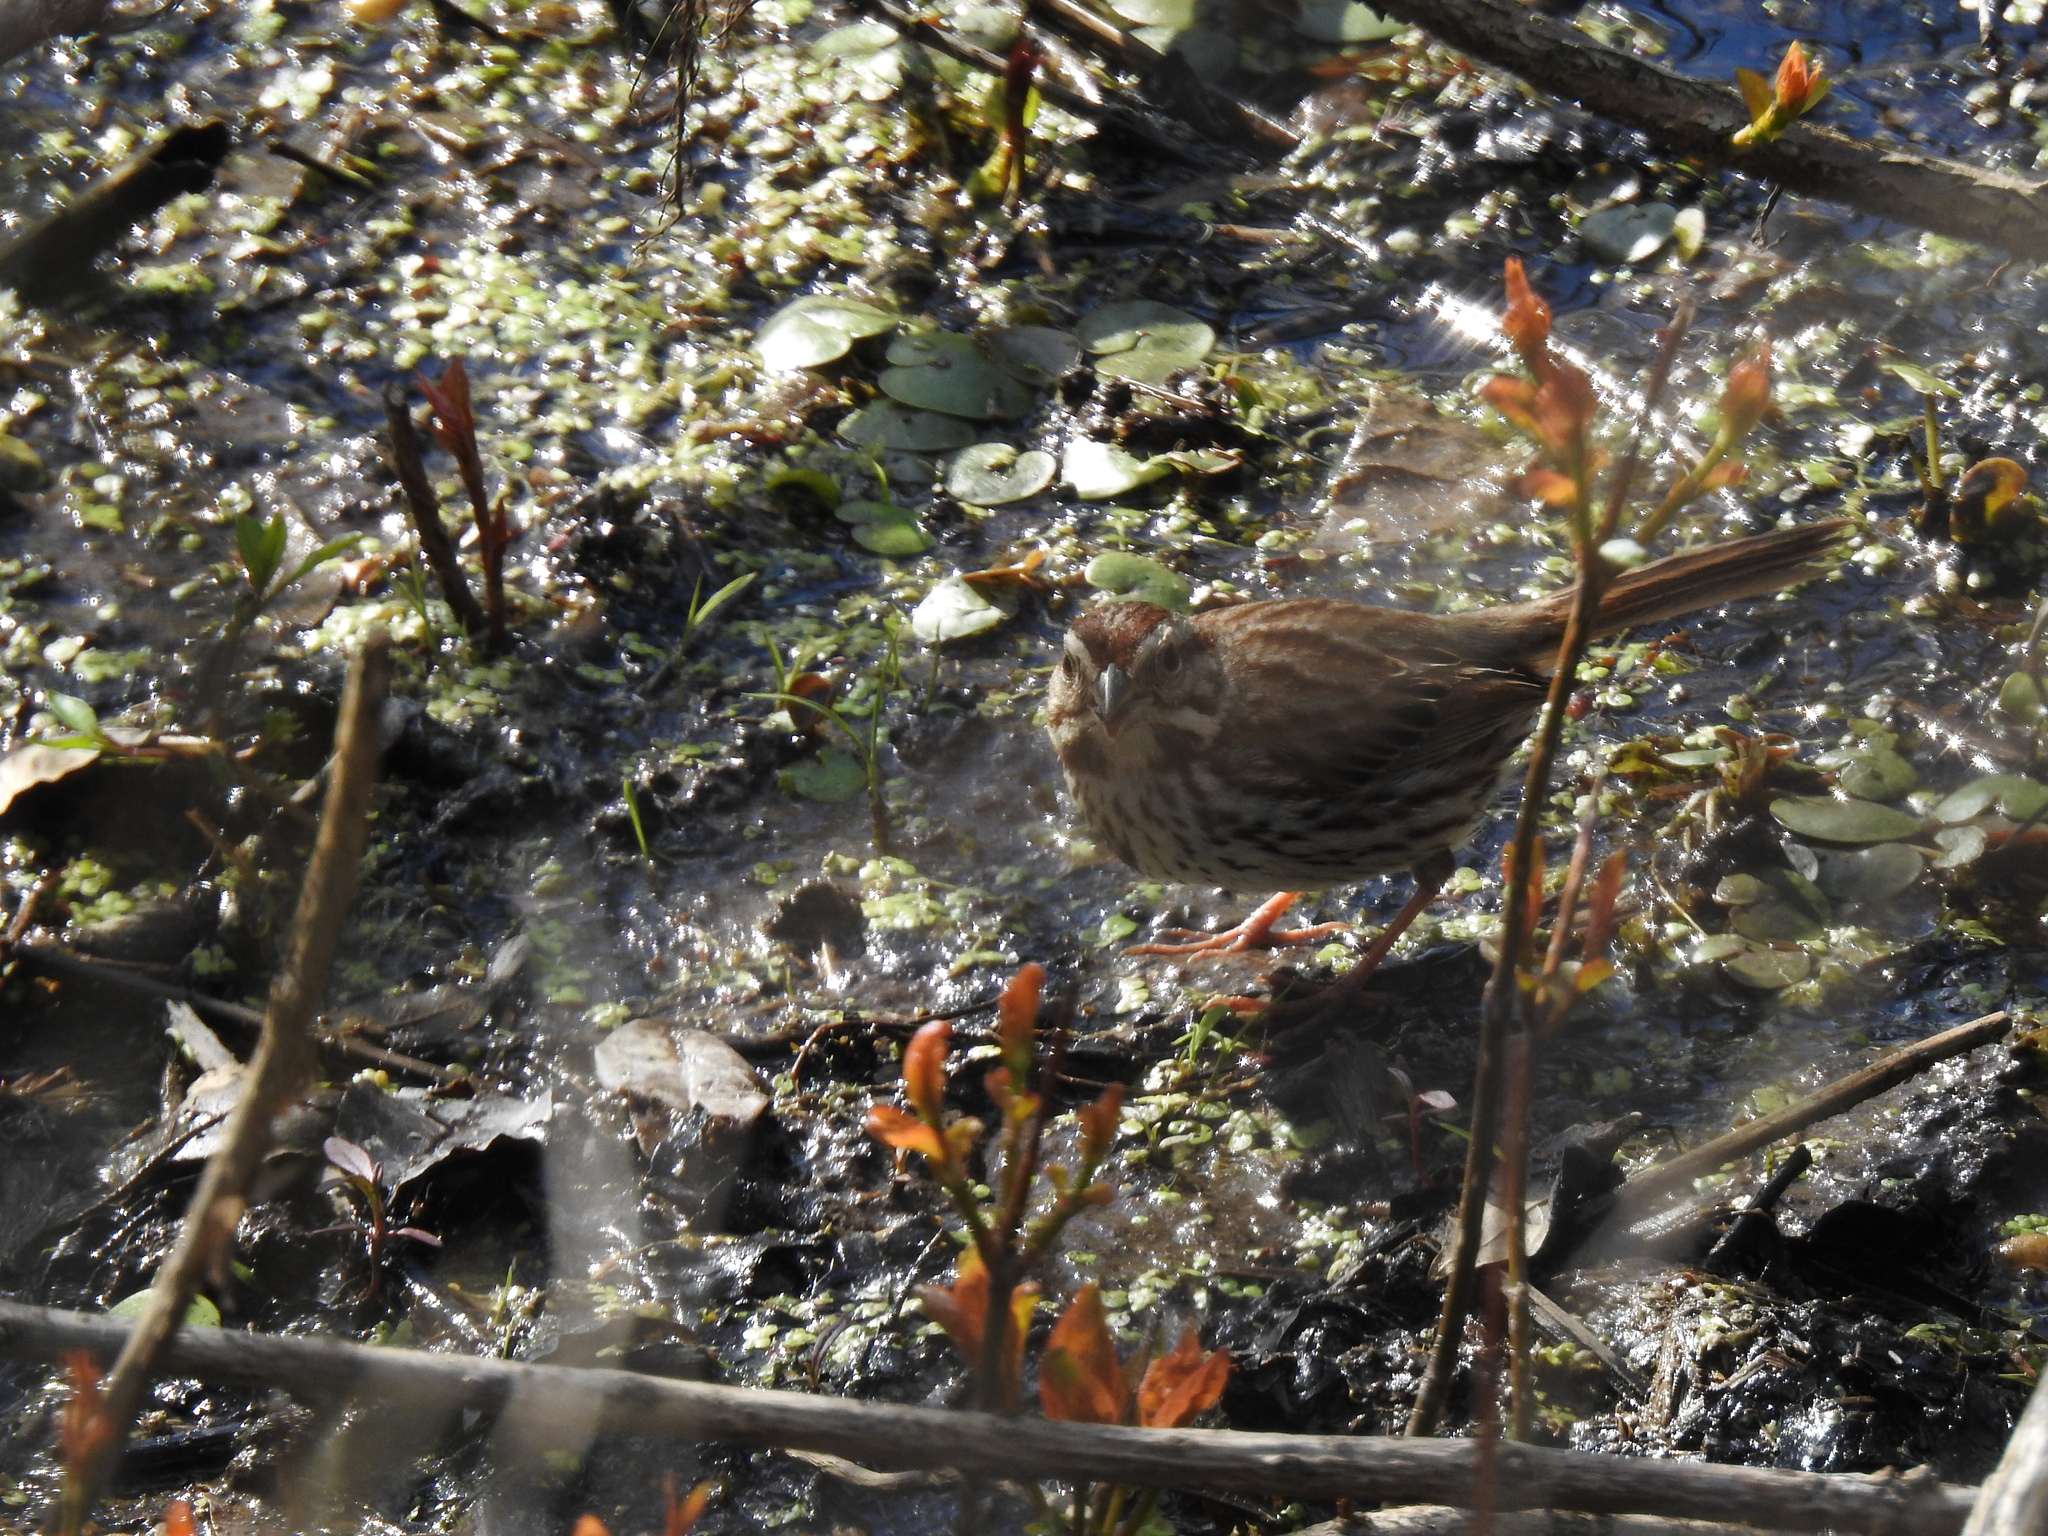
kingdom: Animalia
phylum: Chordata
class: Aves
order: Passeriformes
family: Passerellidae
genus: Melospiza
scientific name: Melospiza melodia
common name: Song sparrow
